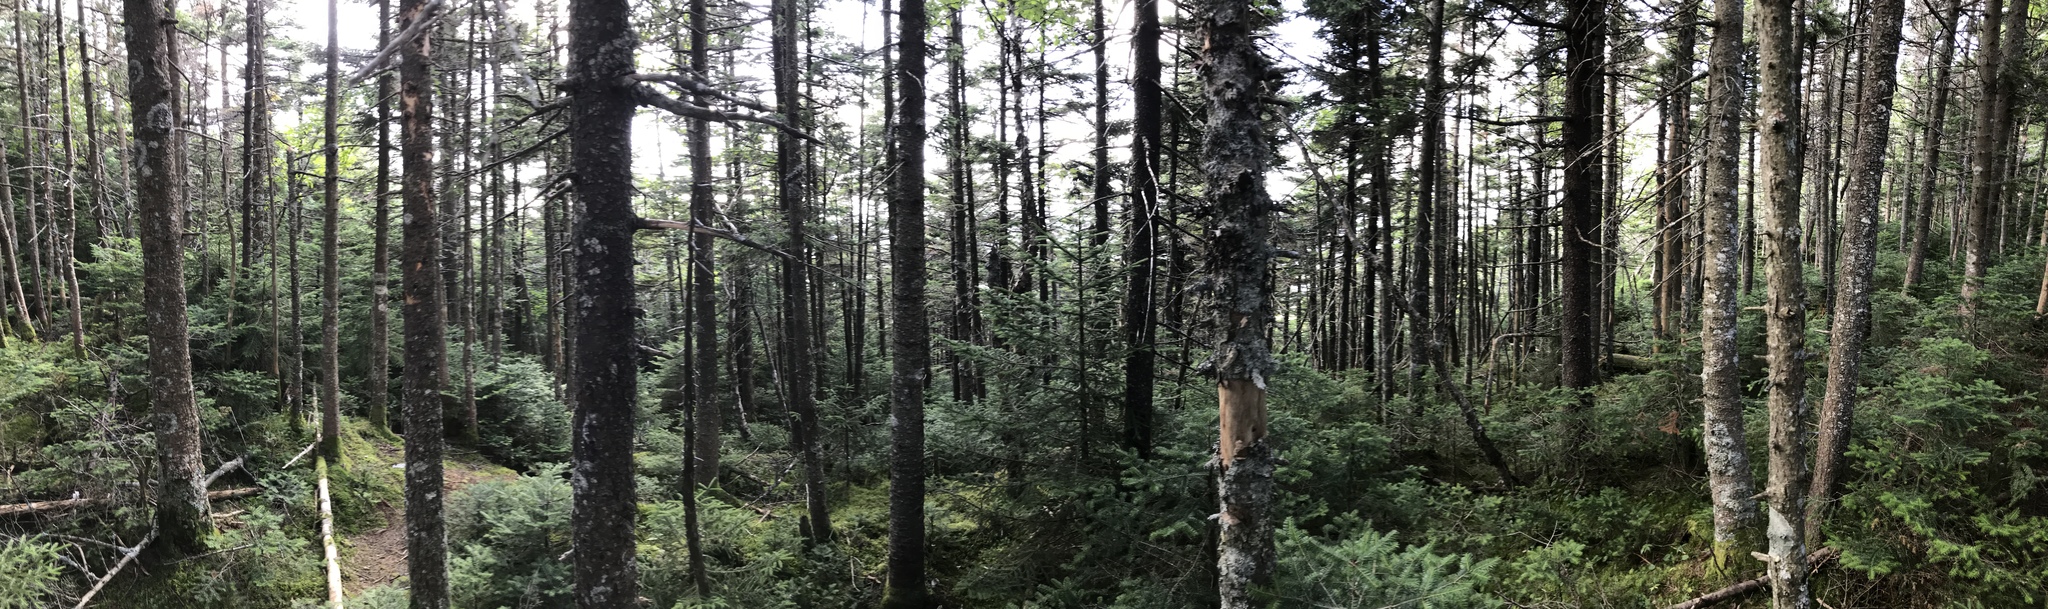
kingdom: Plantae
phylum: Tracheophyta
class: Pinopsida
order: Pinales
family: Pinaceae
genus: Abies
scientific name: Abies balsamea
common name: Balsam fir
